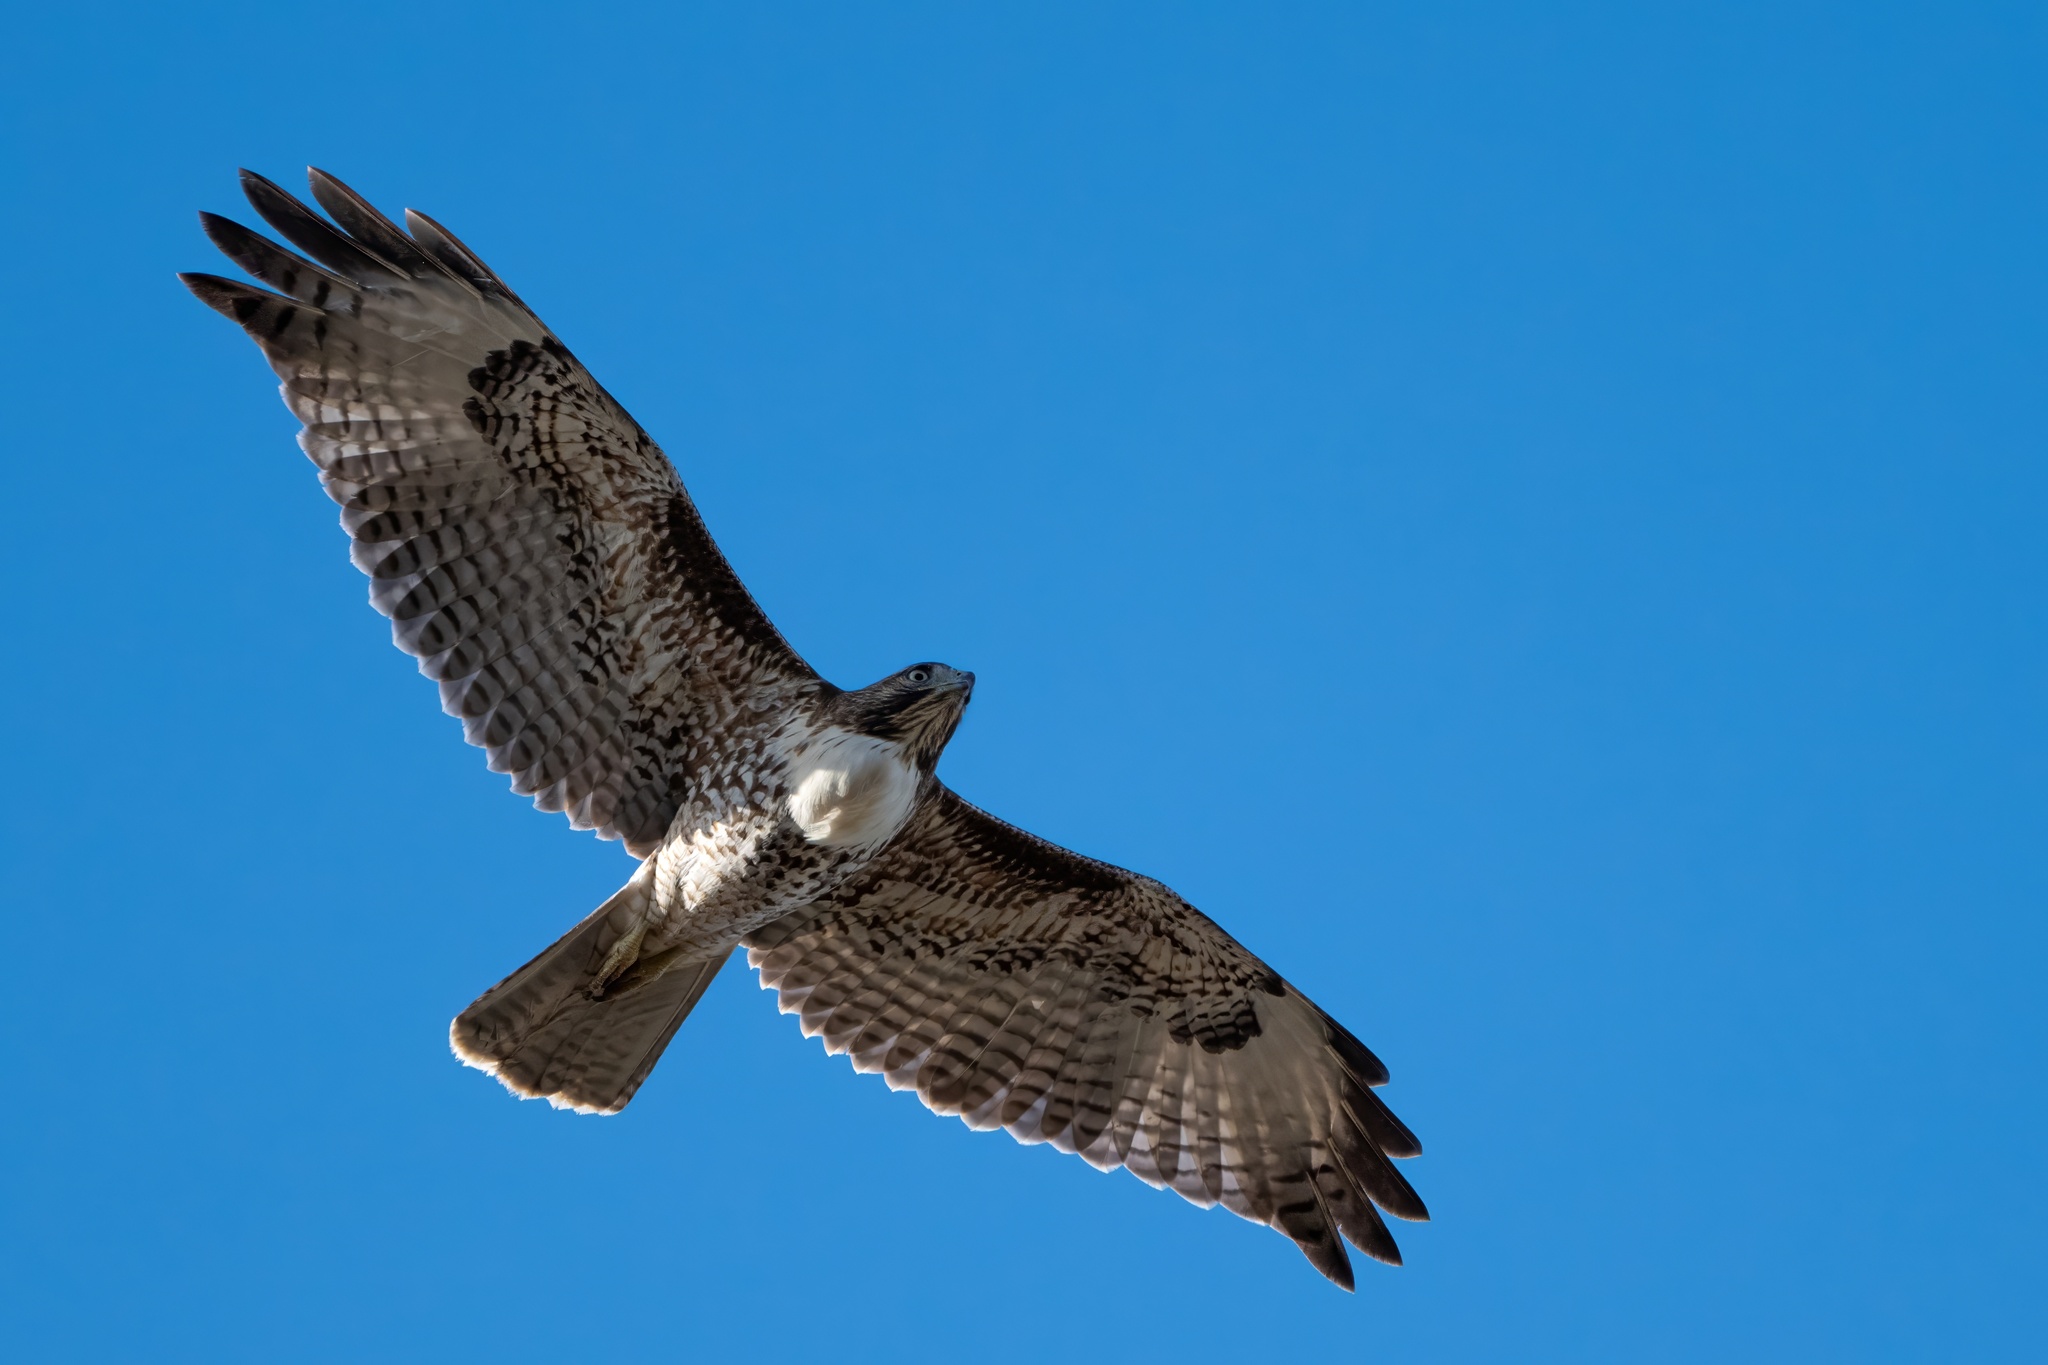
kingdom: Animalia
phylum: Chordata
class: Aves
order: Accipitriformes
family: Accipitridae
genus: Buteo
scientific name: Buteo jamaicensis
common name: Red-tailed hawk
